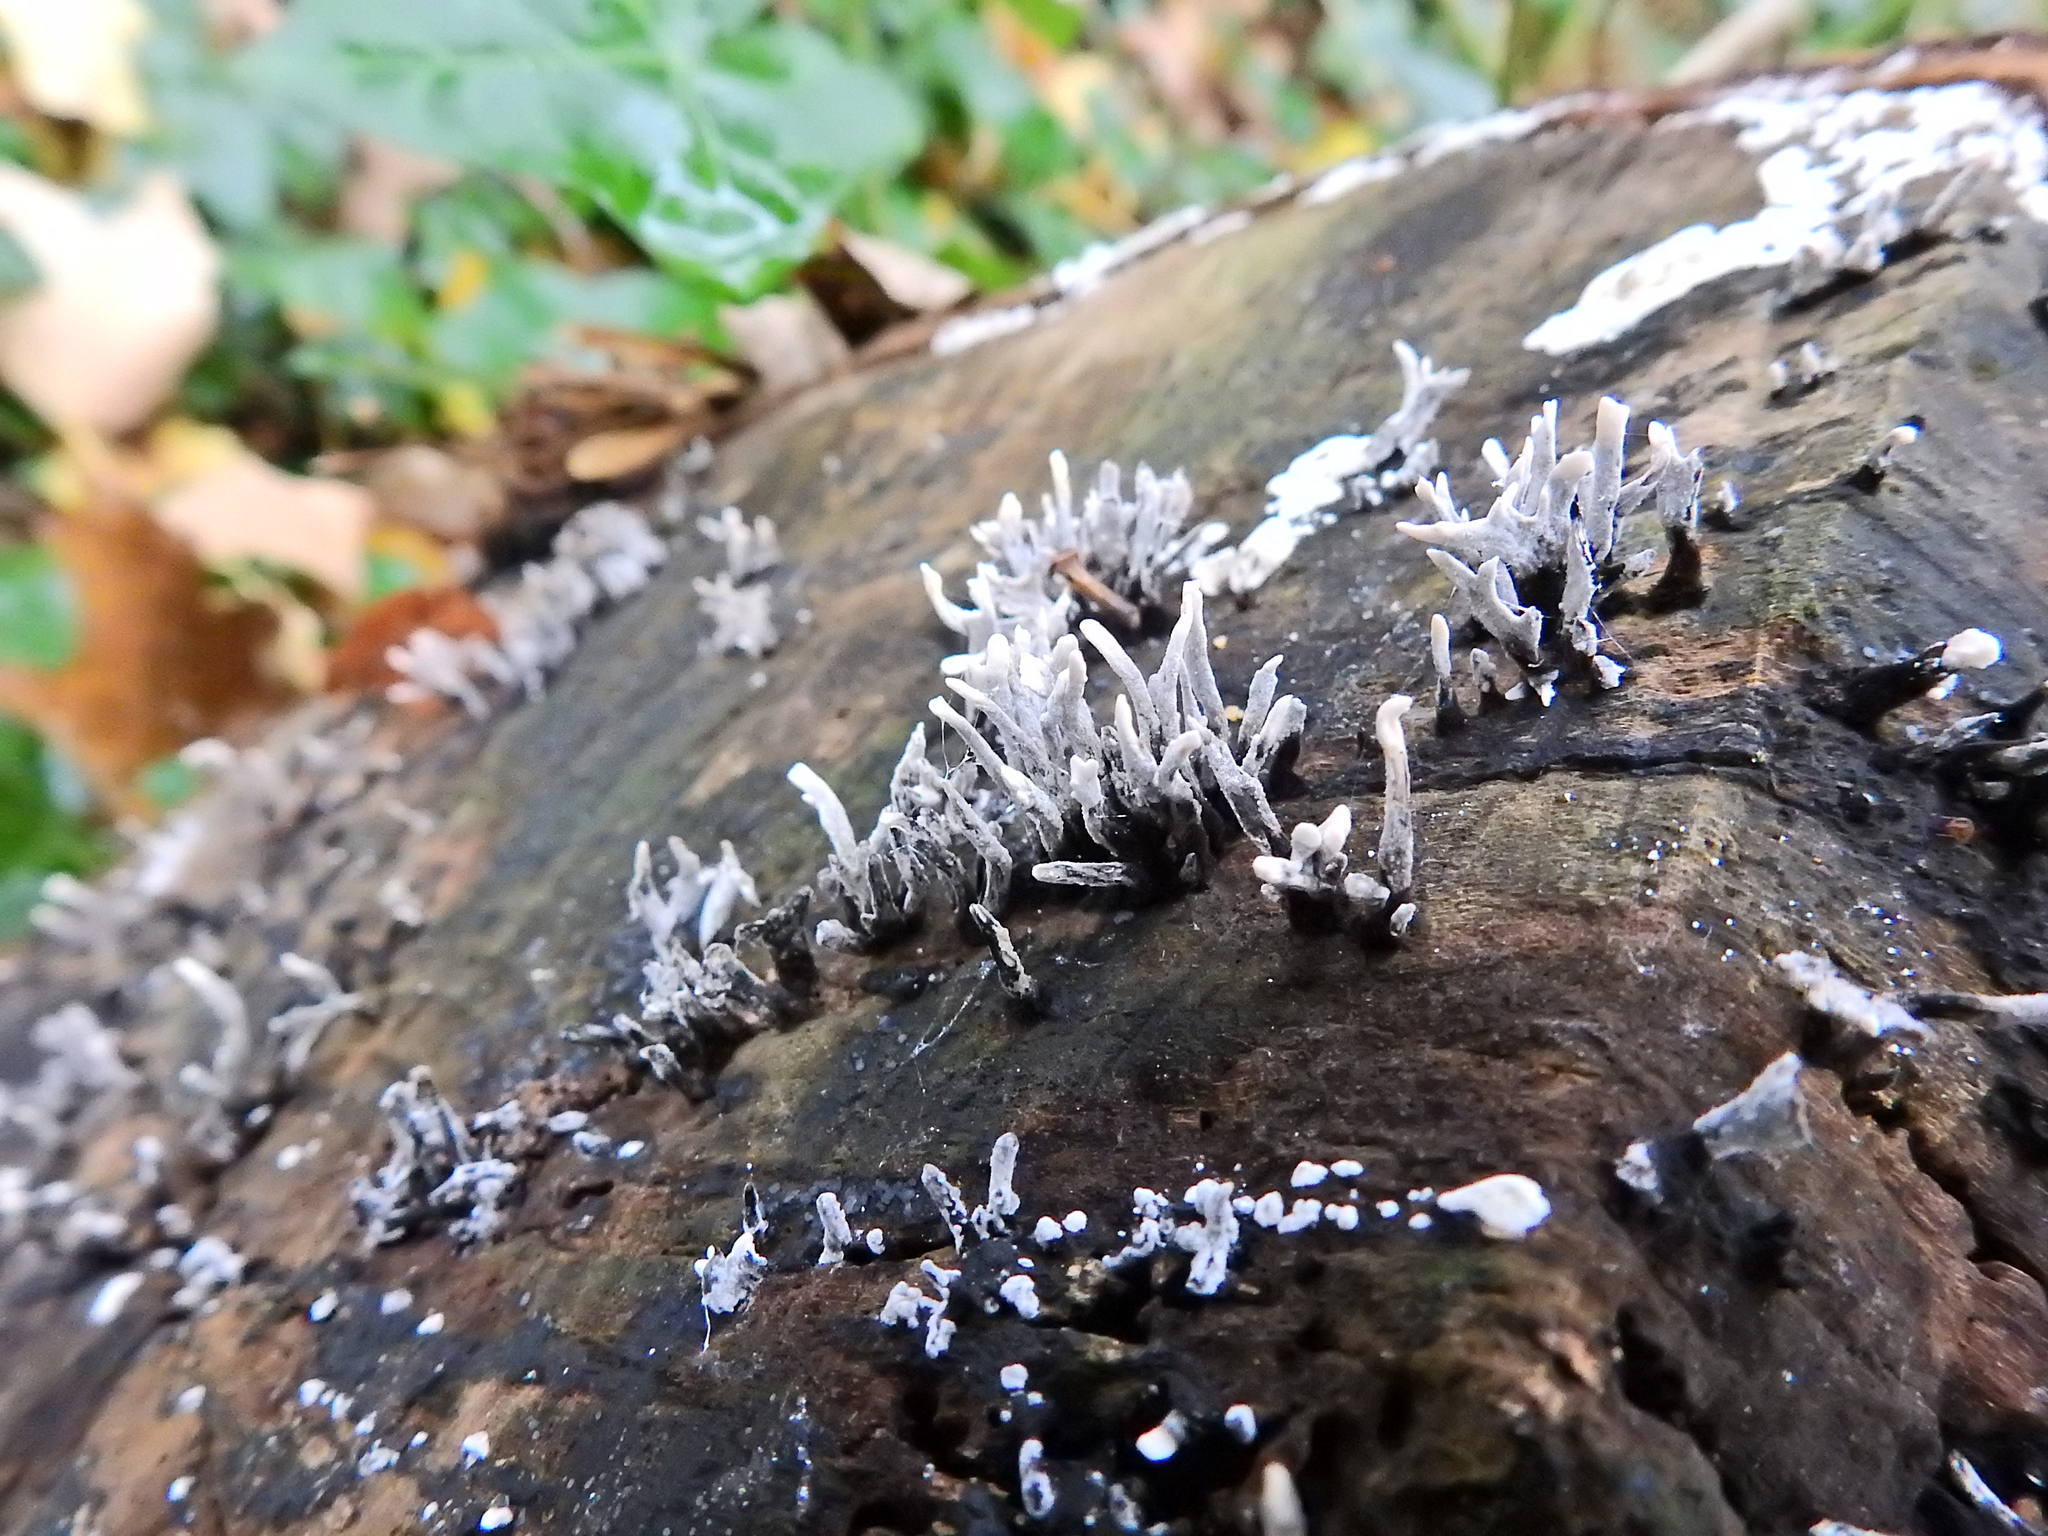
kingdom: Fungi
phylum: Ascomycota
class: Sordariomycetes
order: Xylariales
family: Xylariaceae
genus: Xylaria
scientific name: Xylaria hypoxylon
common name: Candle-snuff fungus
